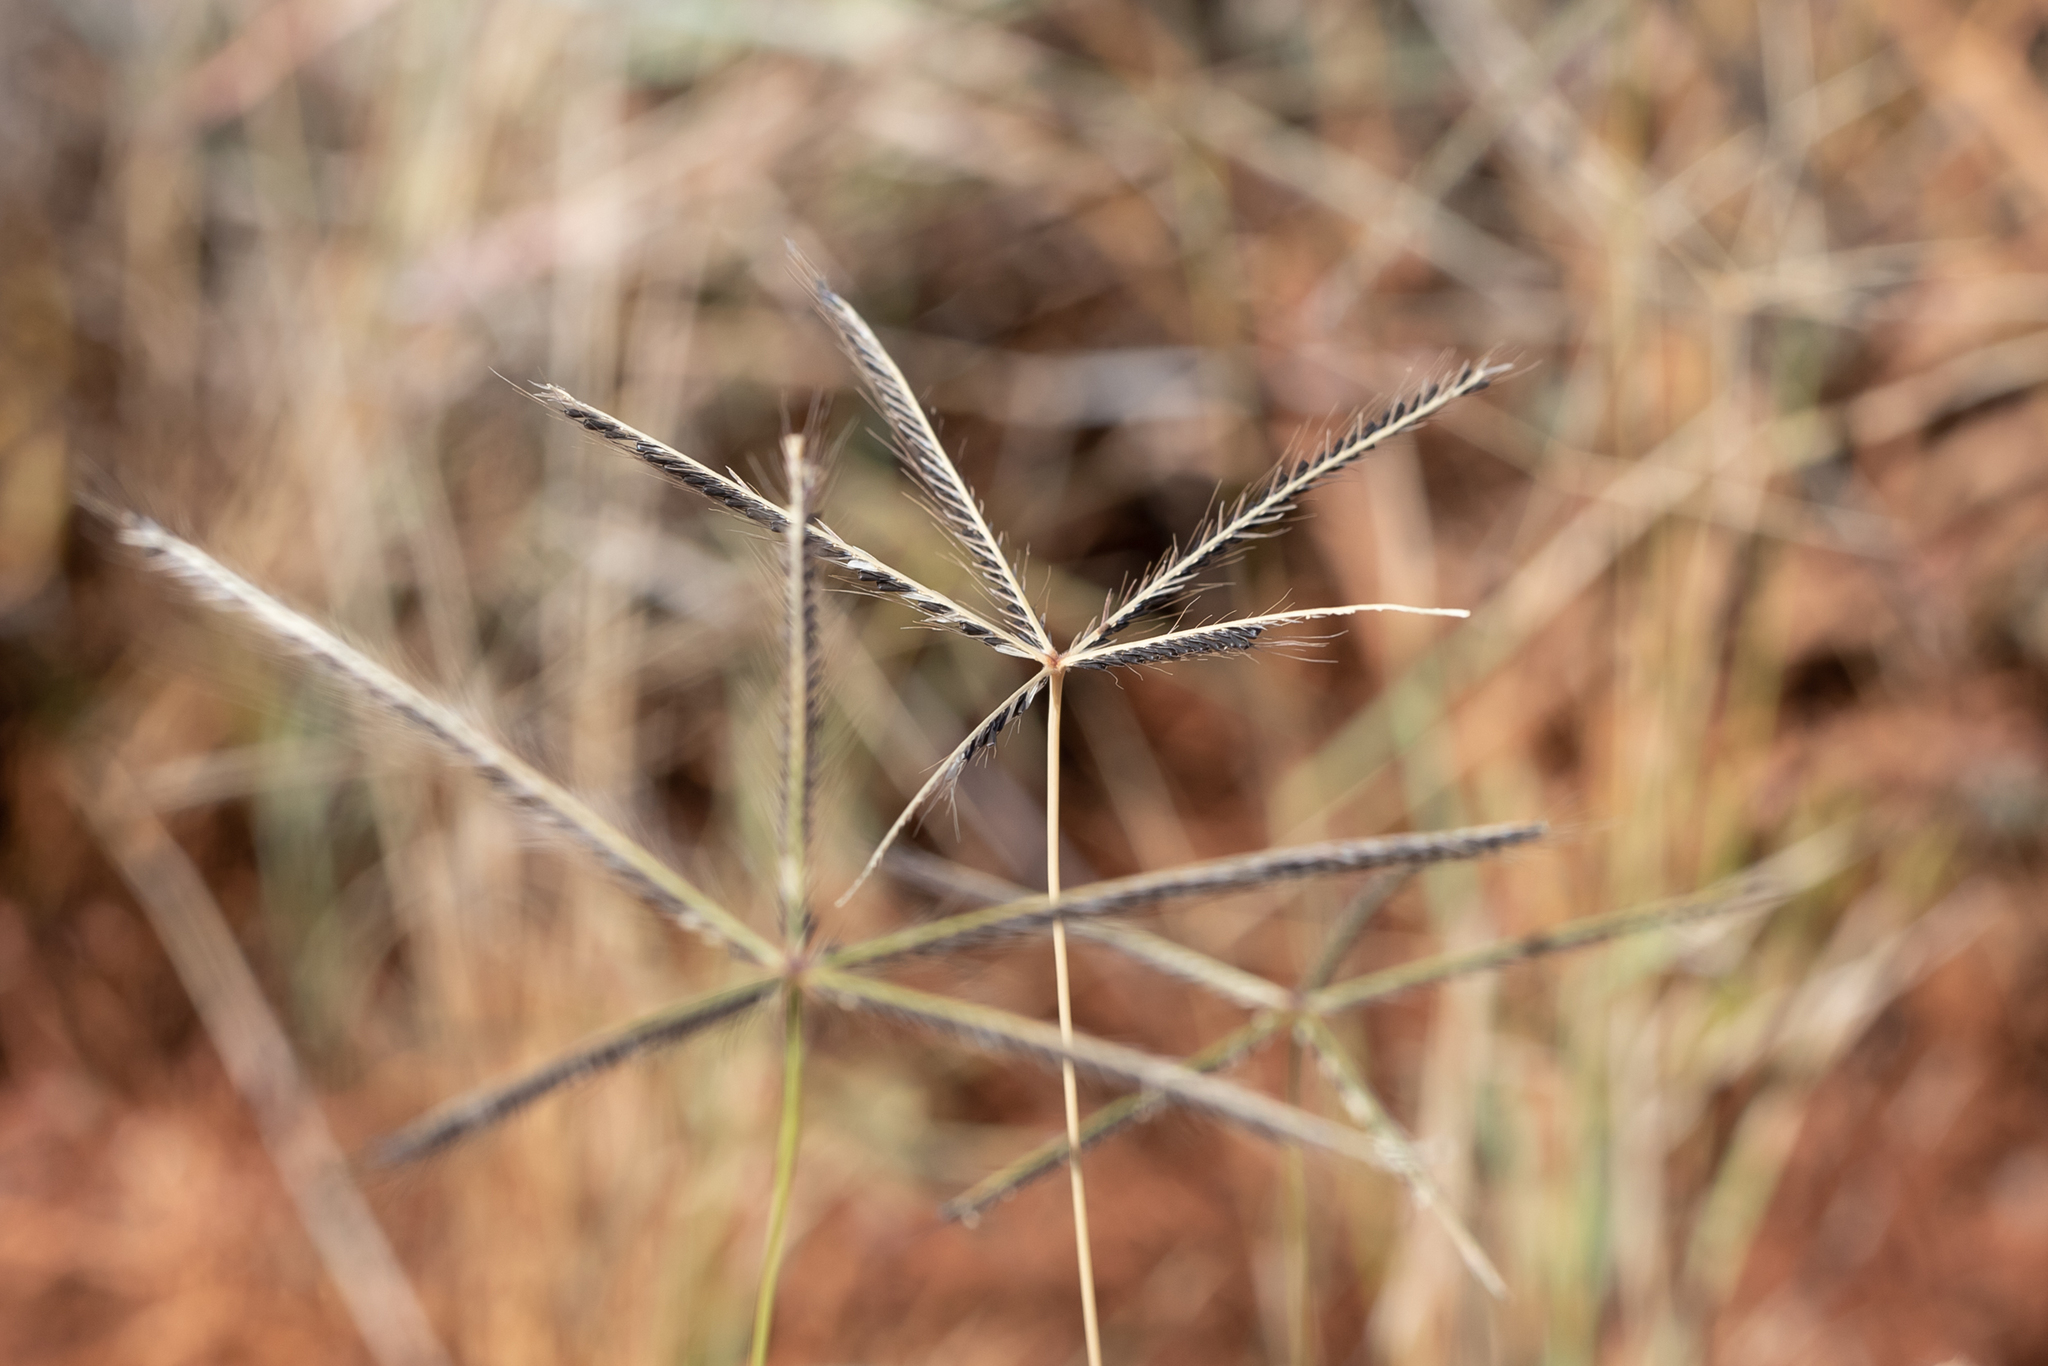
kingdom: Plantae
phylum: Tracheophyta
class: Liliopsida
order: Poales
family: Poaceae
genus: Chloris
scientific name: Chloris truncata
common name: Windmill-grass
